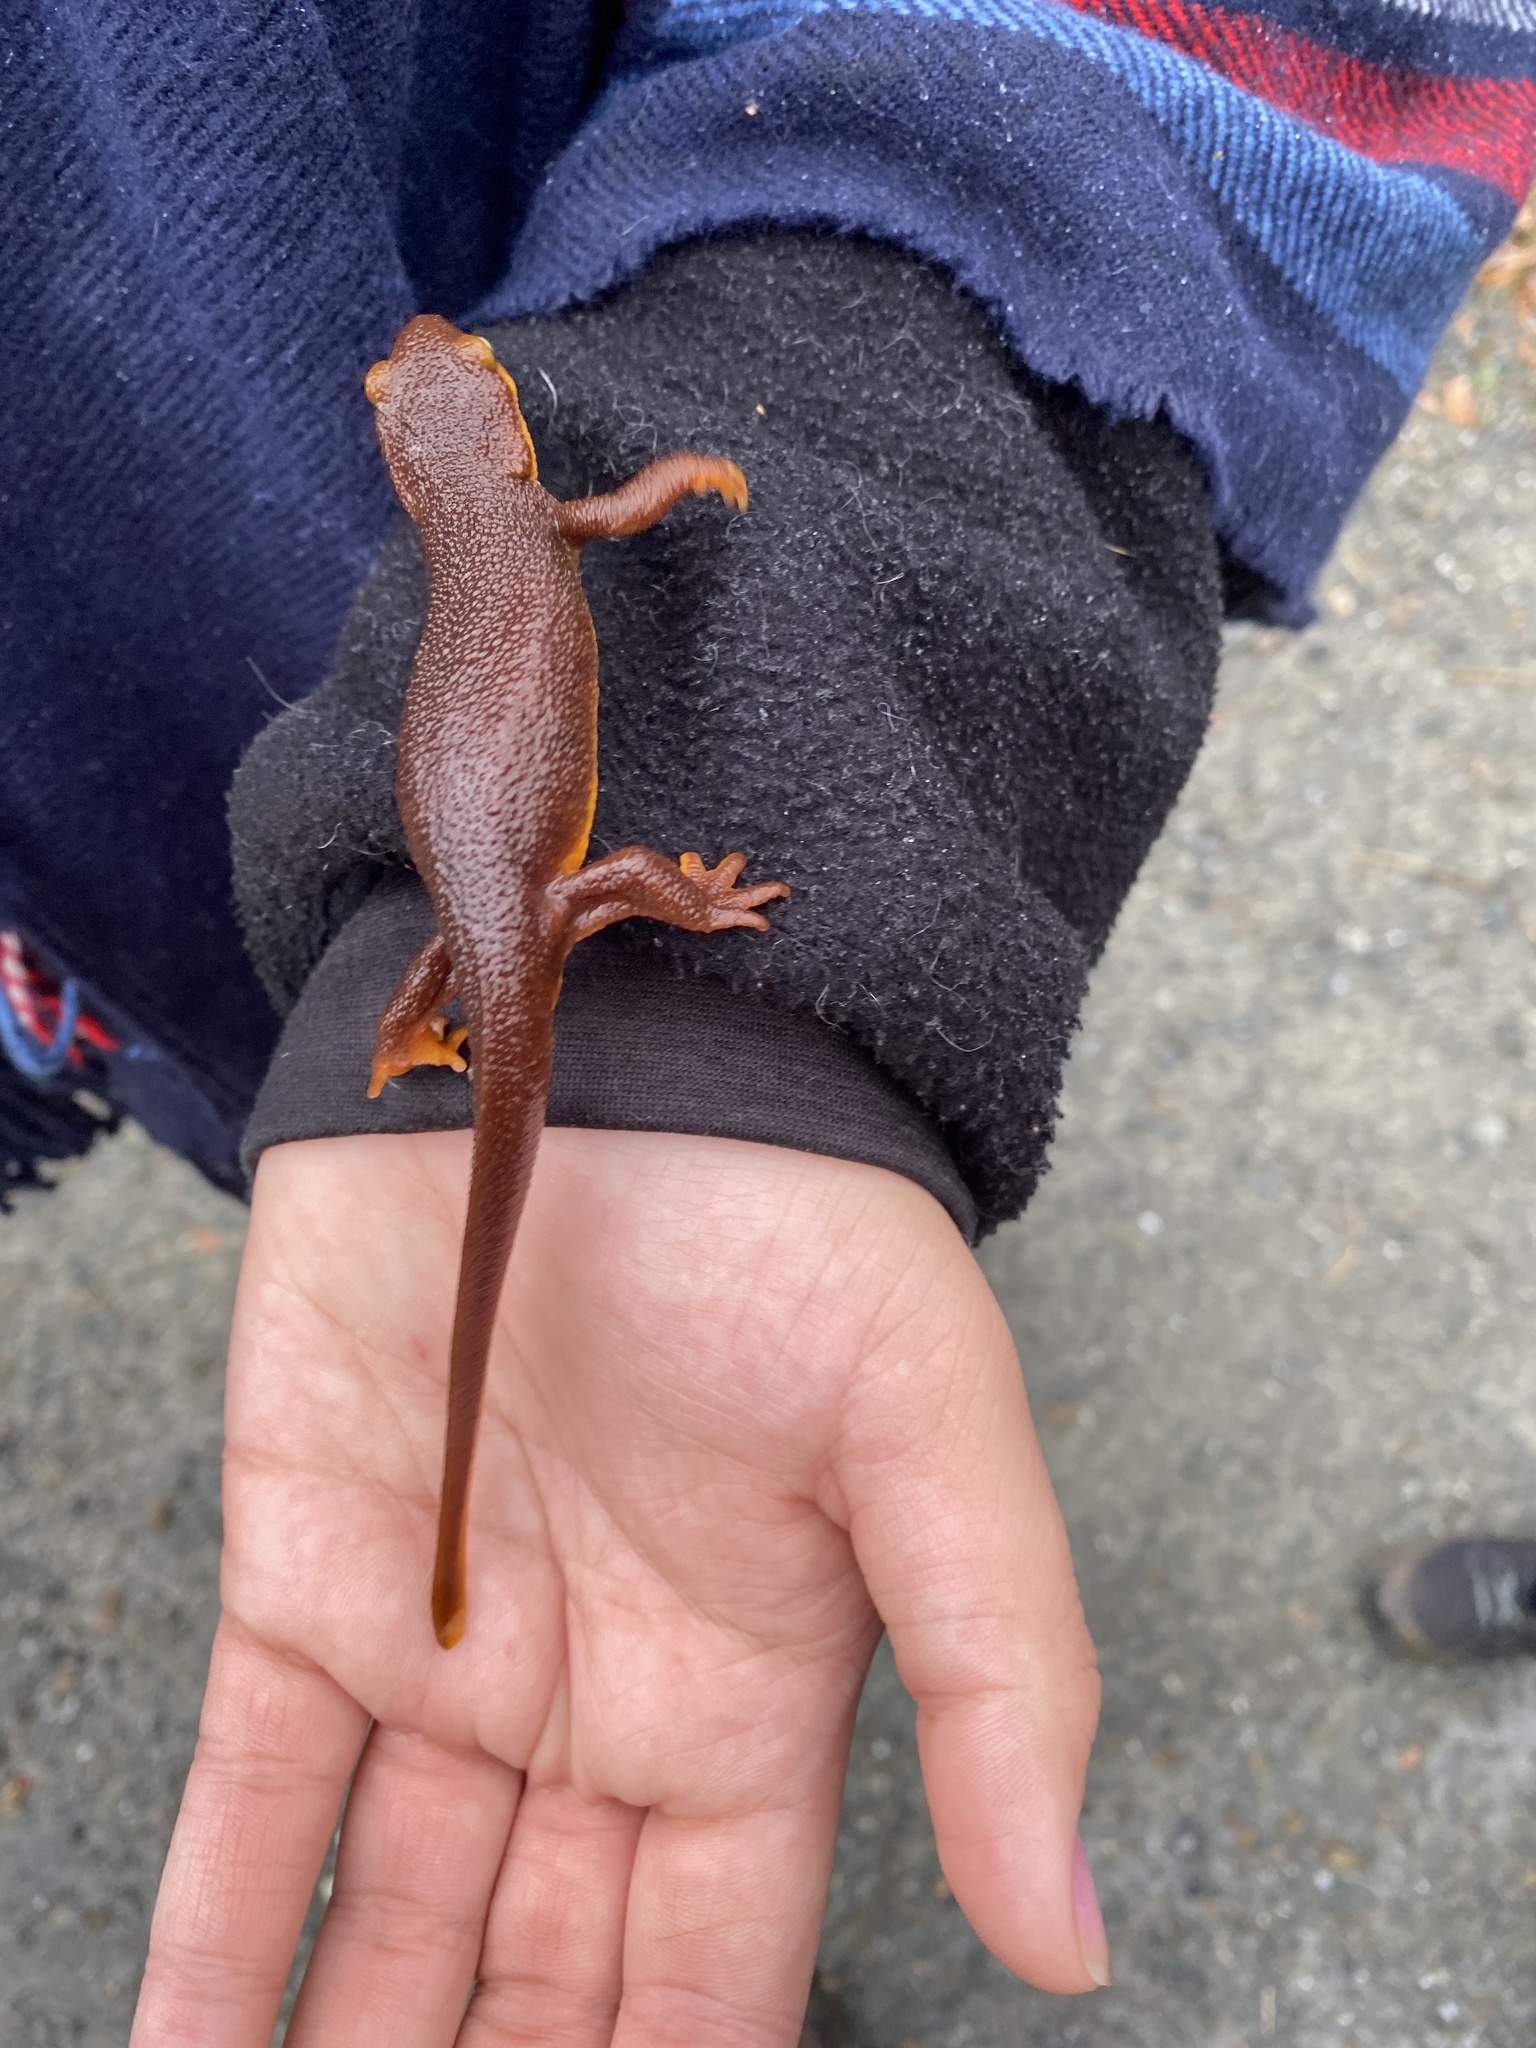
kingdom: Animalia
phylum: Chordata
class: Amphibia
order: Caudata
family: Salamandridae
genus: Taricha
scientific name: Taricha torosa
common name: California newt
